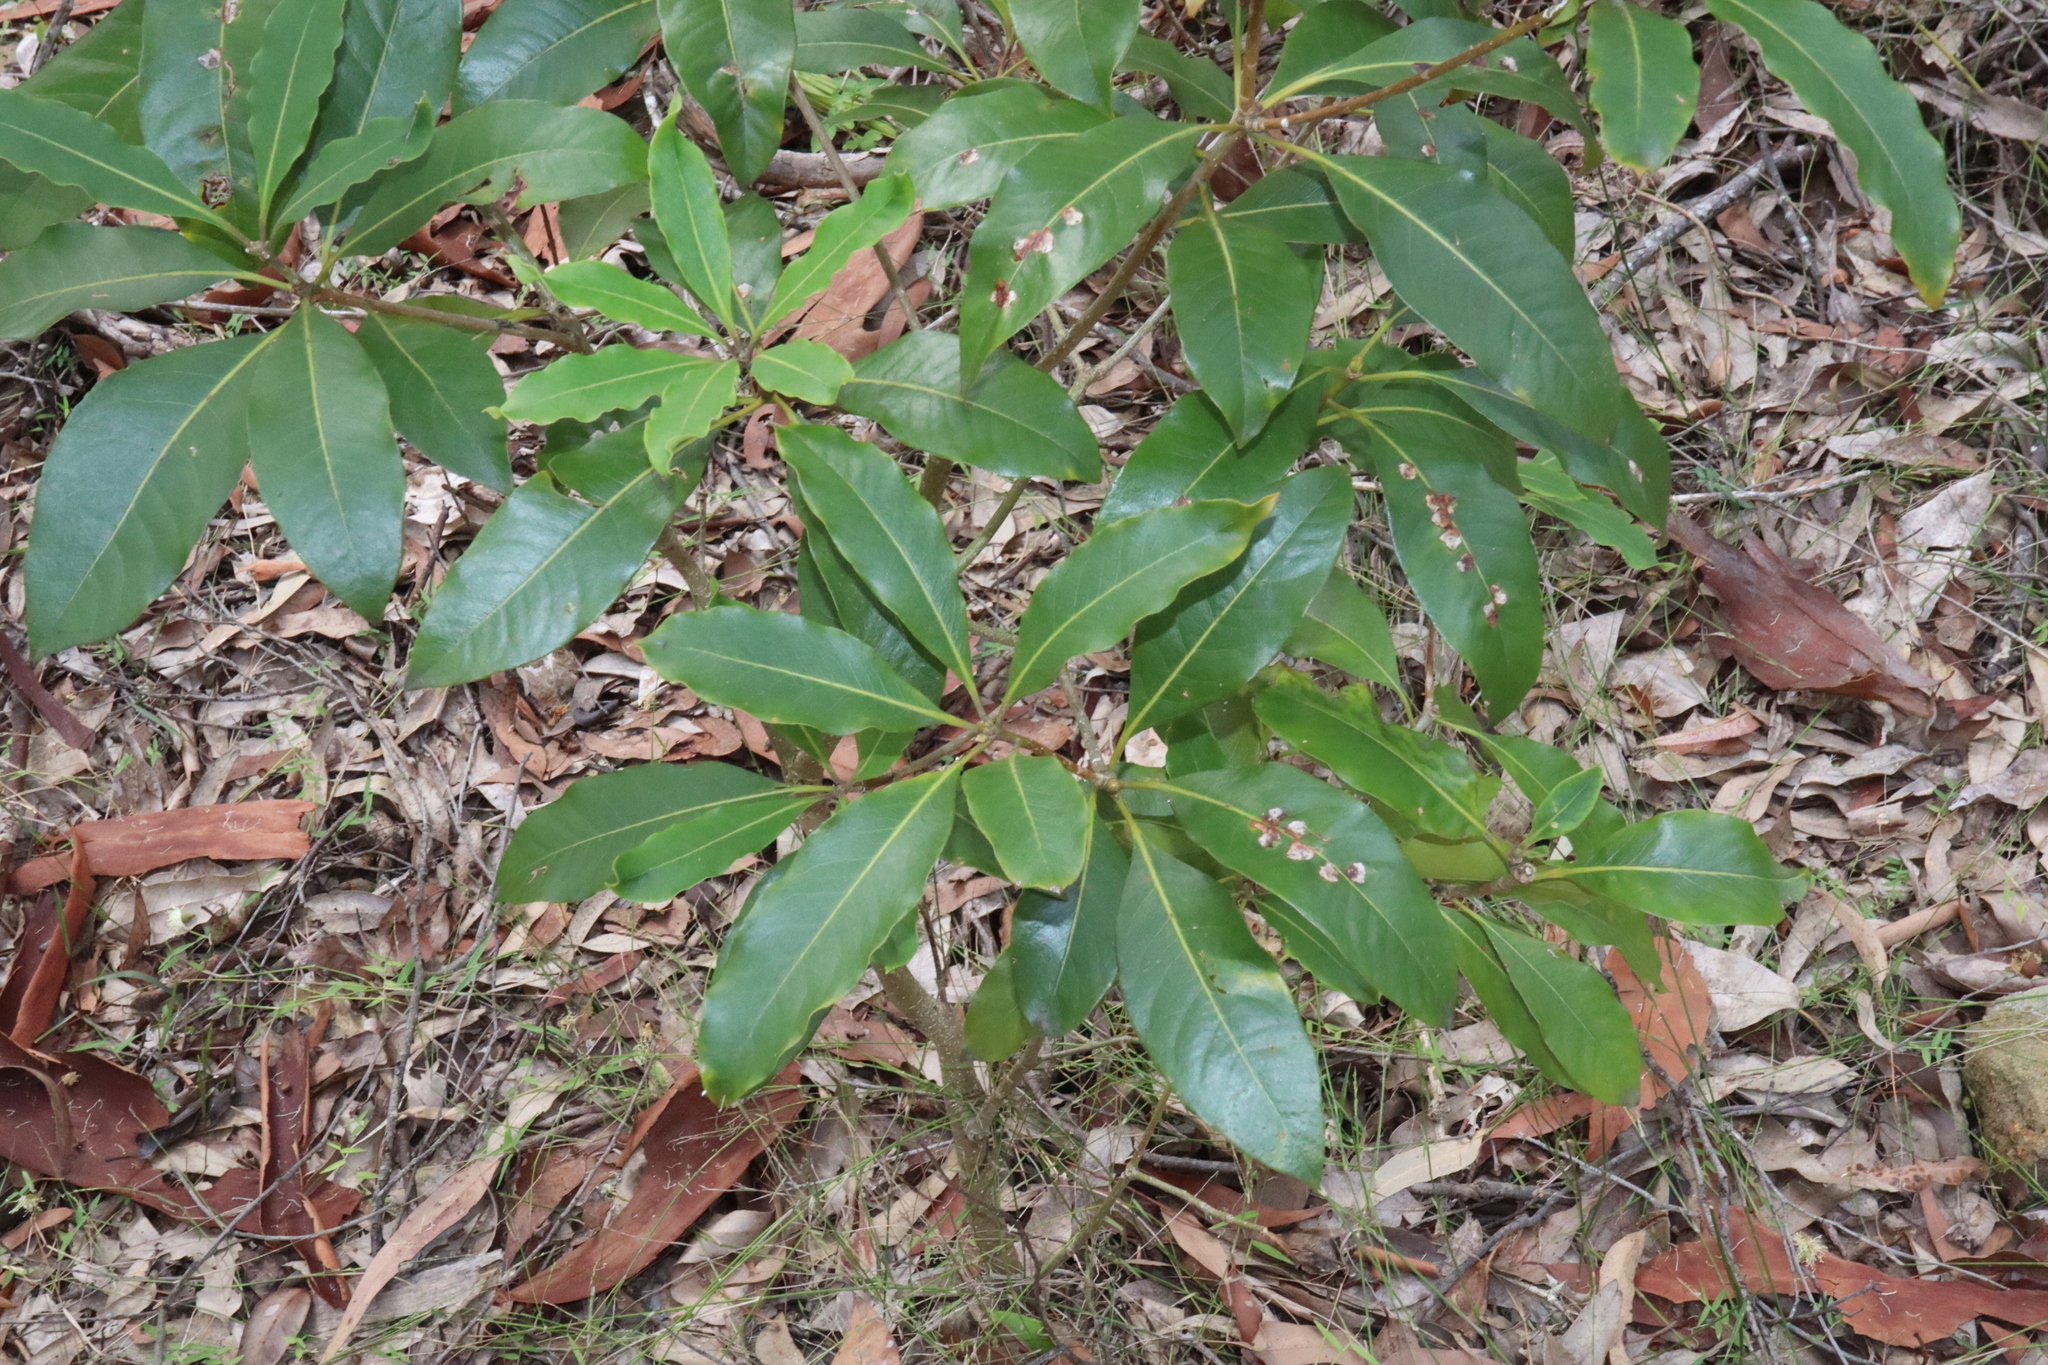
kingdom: Plantae
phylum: Tracheophyta
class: Magnoliopsida
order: Apiales
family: Pittosporaceae
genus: Pittosporum
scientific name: Pittosporum undulatum
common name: Australian cheesewood
